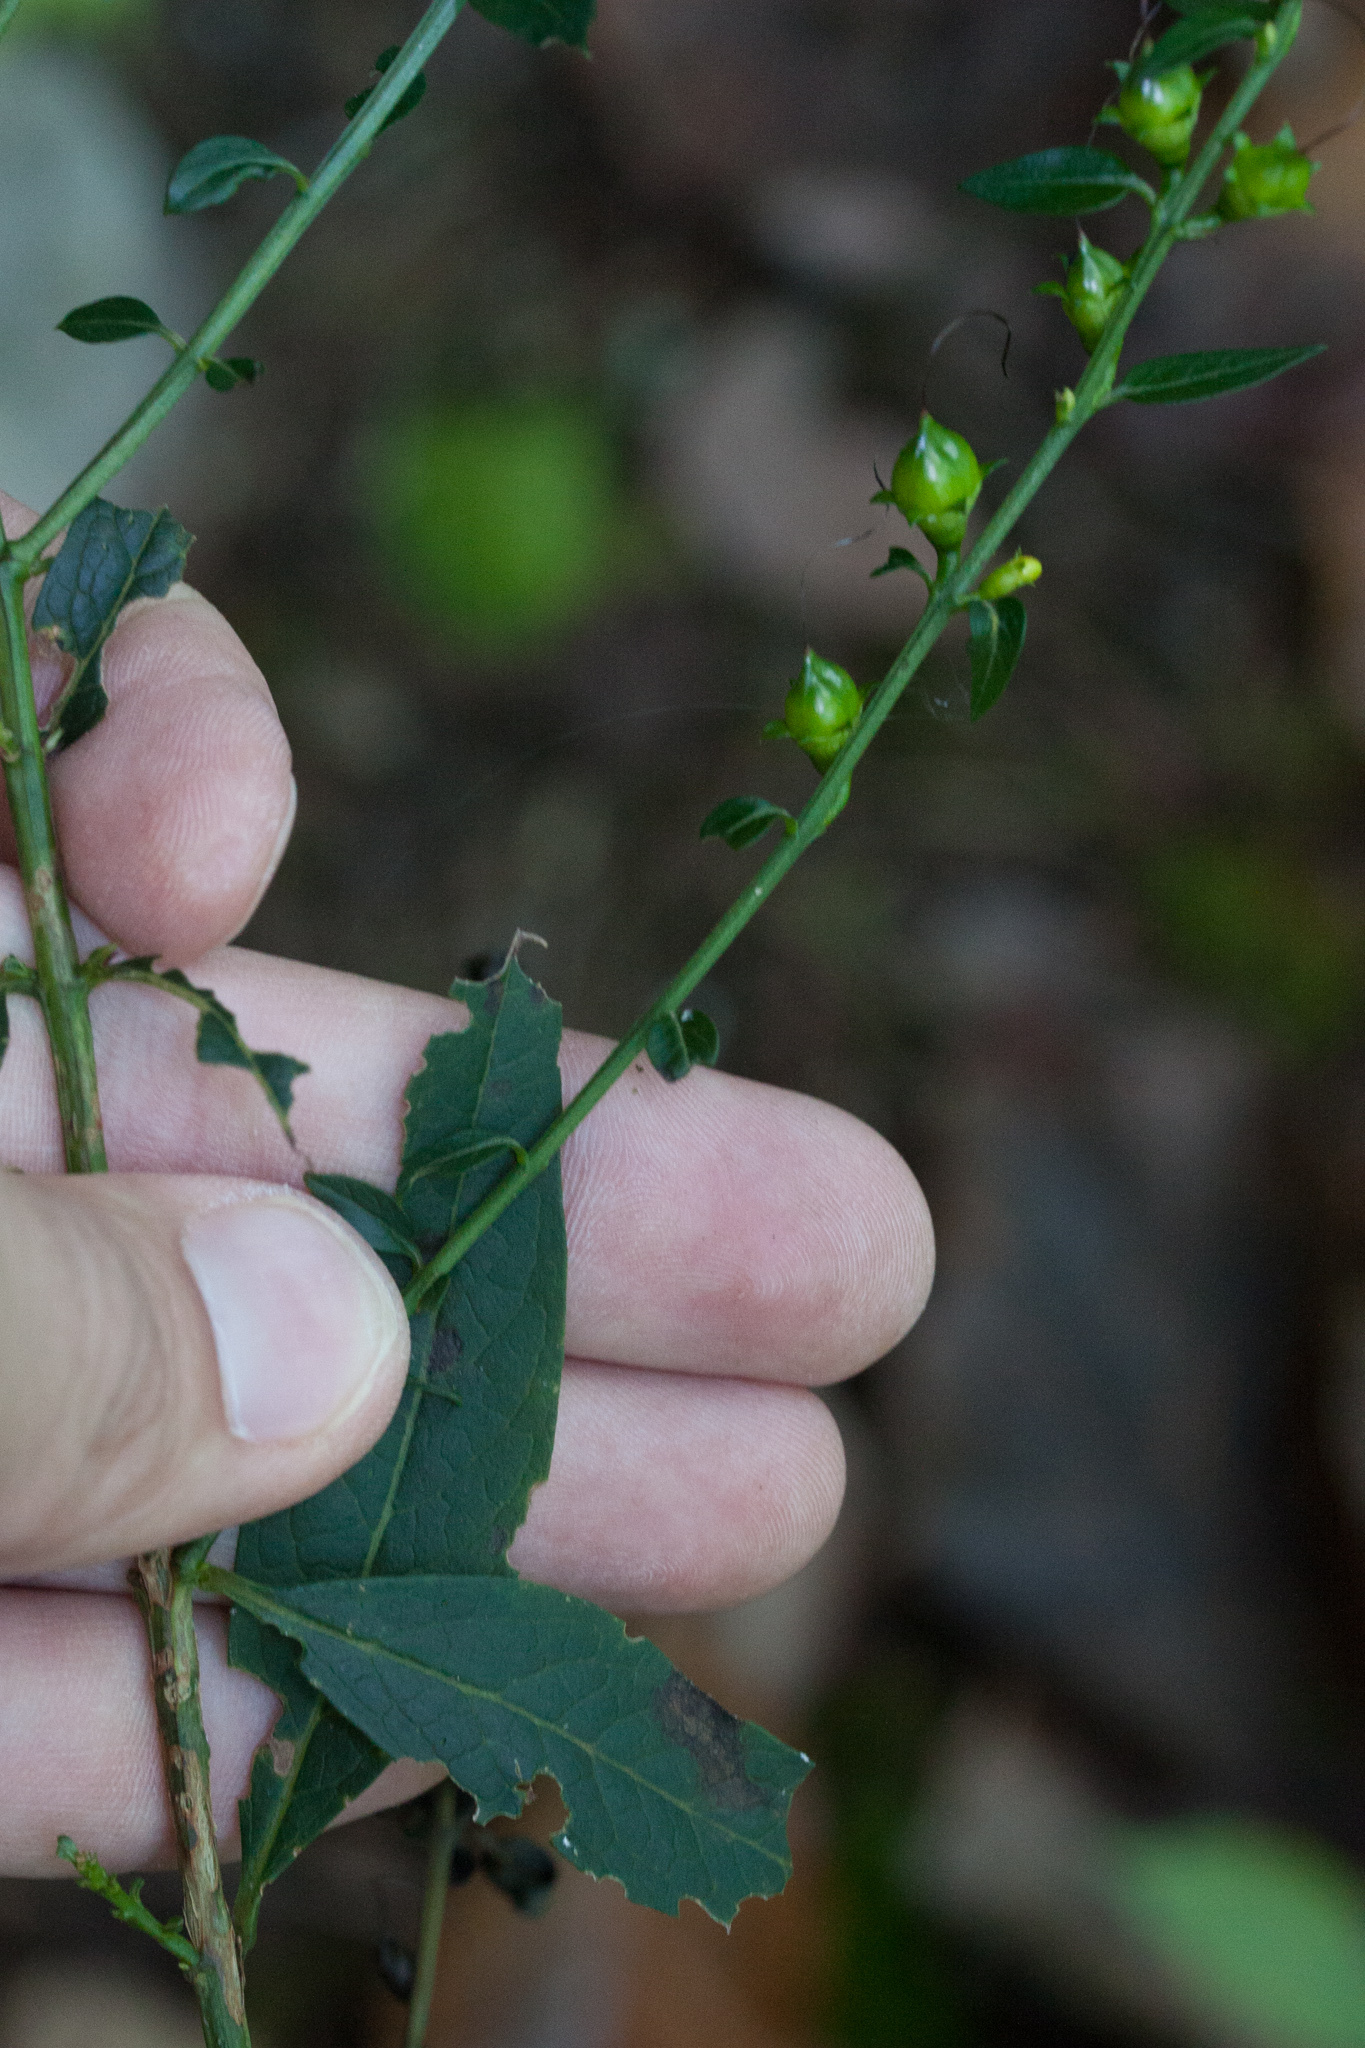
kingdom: Plantae
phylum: Tracheophyta
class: Magnoliopsida
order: Lamiales
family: Orobanchaceae
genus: Aureolaria
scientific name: Aureolaria levigata
